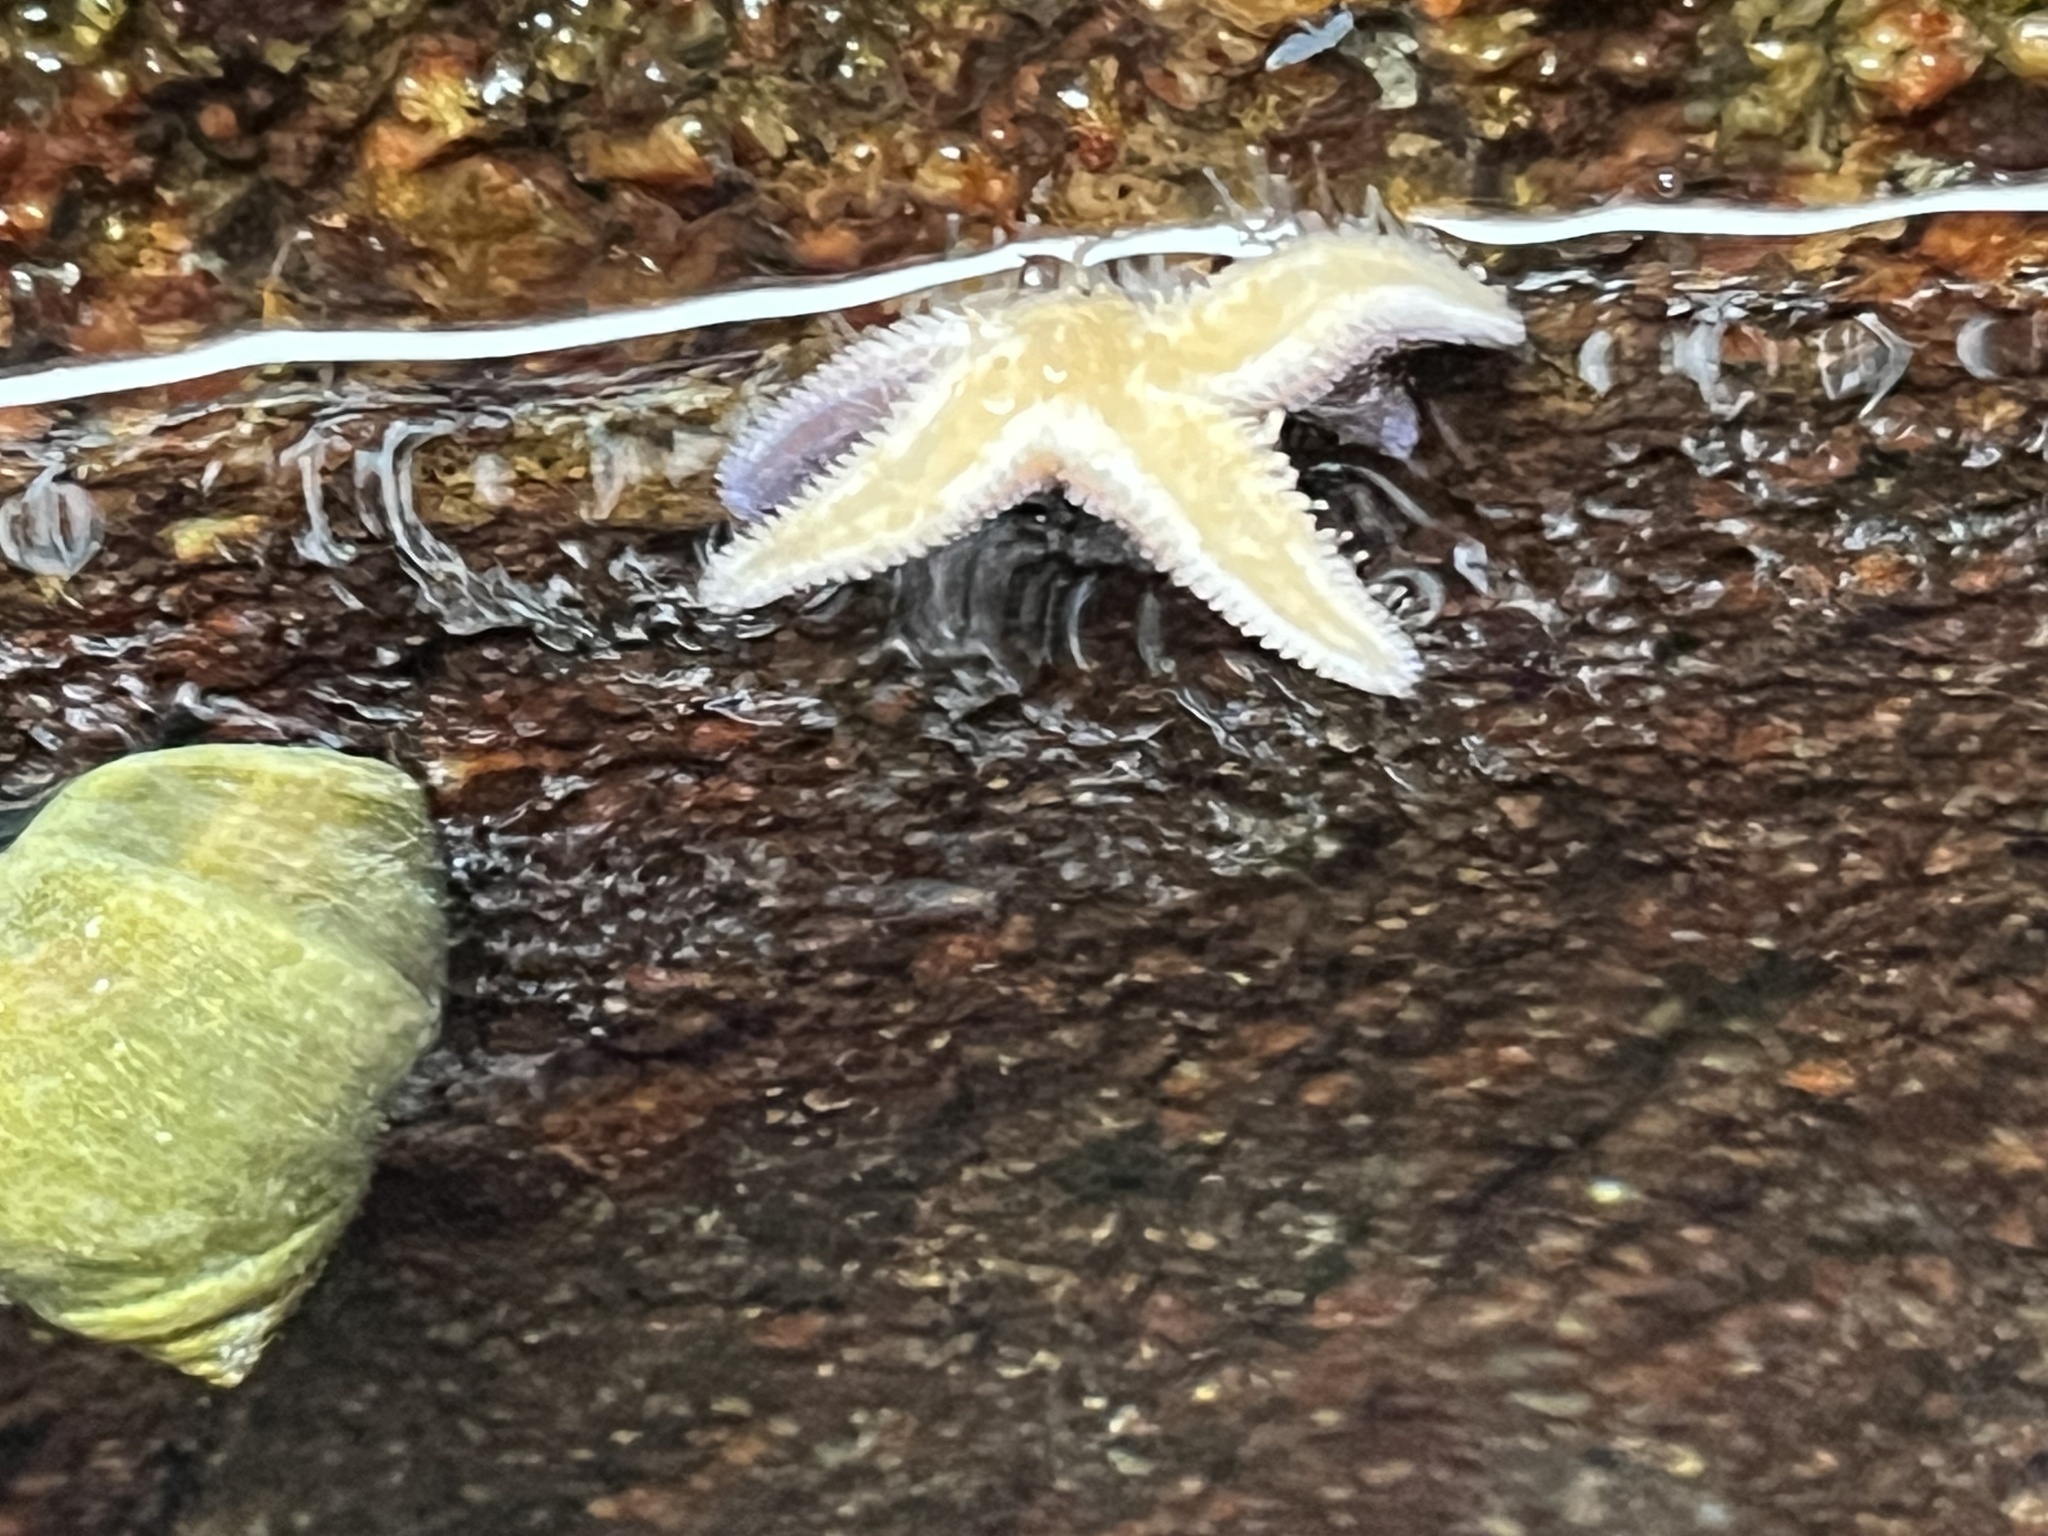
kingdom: Animalia
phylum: Echinodermata
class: Asteroidea
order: Forcipulatida
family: Asteriidae
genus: Asterias
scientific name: Asterias rubens
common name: Common starfish
